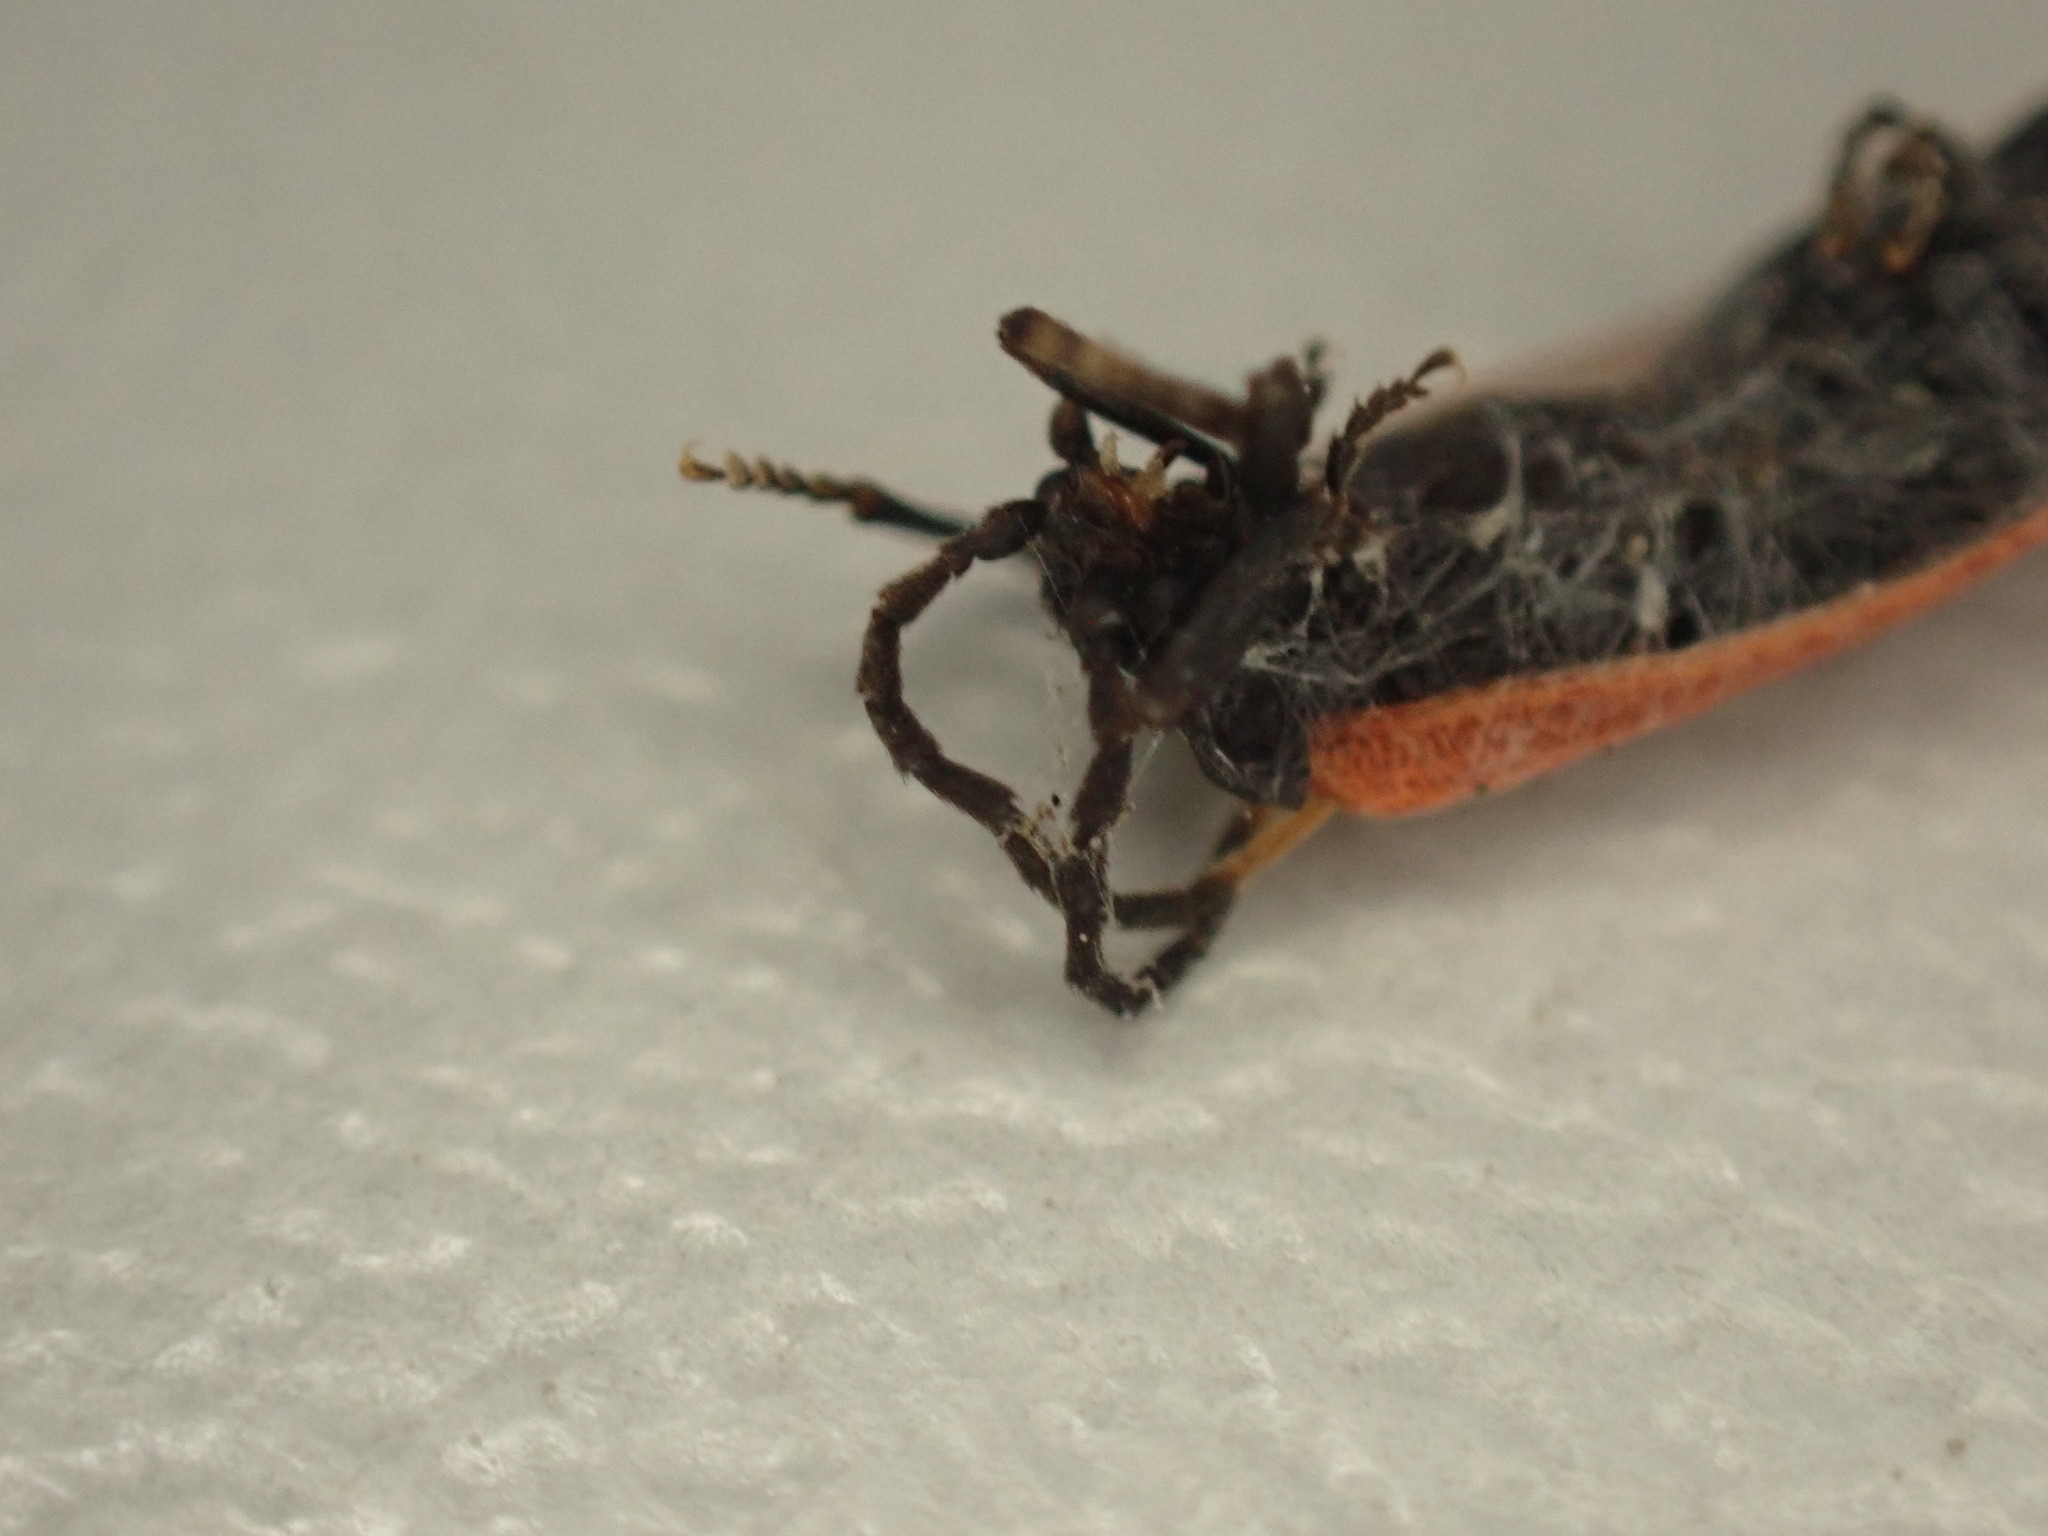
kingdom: Animalia
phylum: Arthropoda
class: Insecta
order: Coleoptera
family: Lycidae
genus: Platycis
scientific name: Platycis minutus
